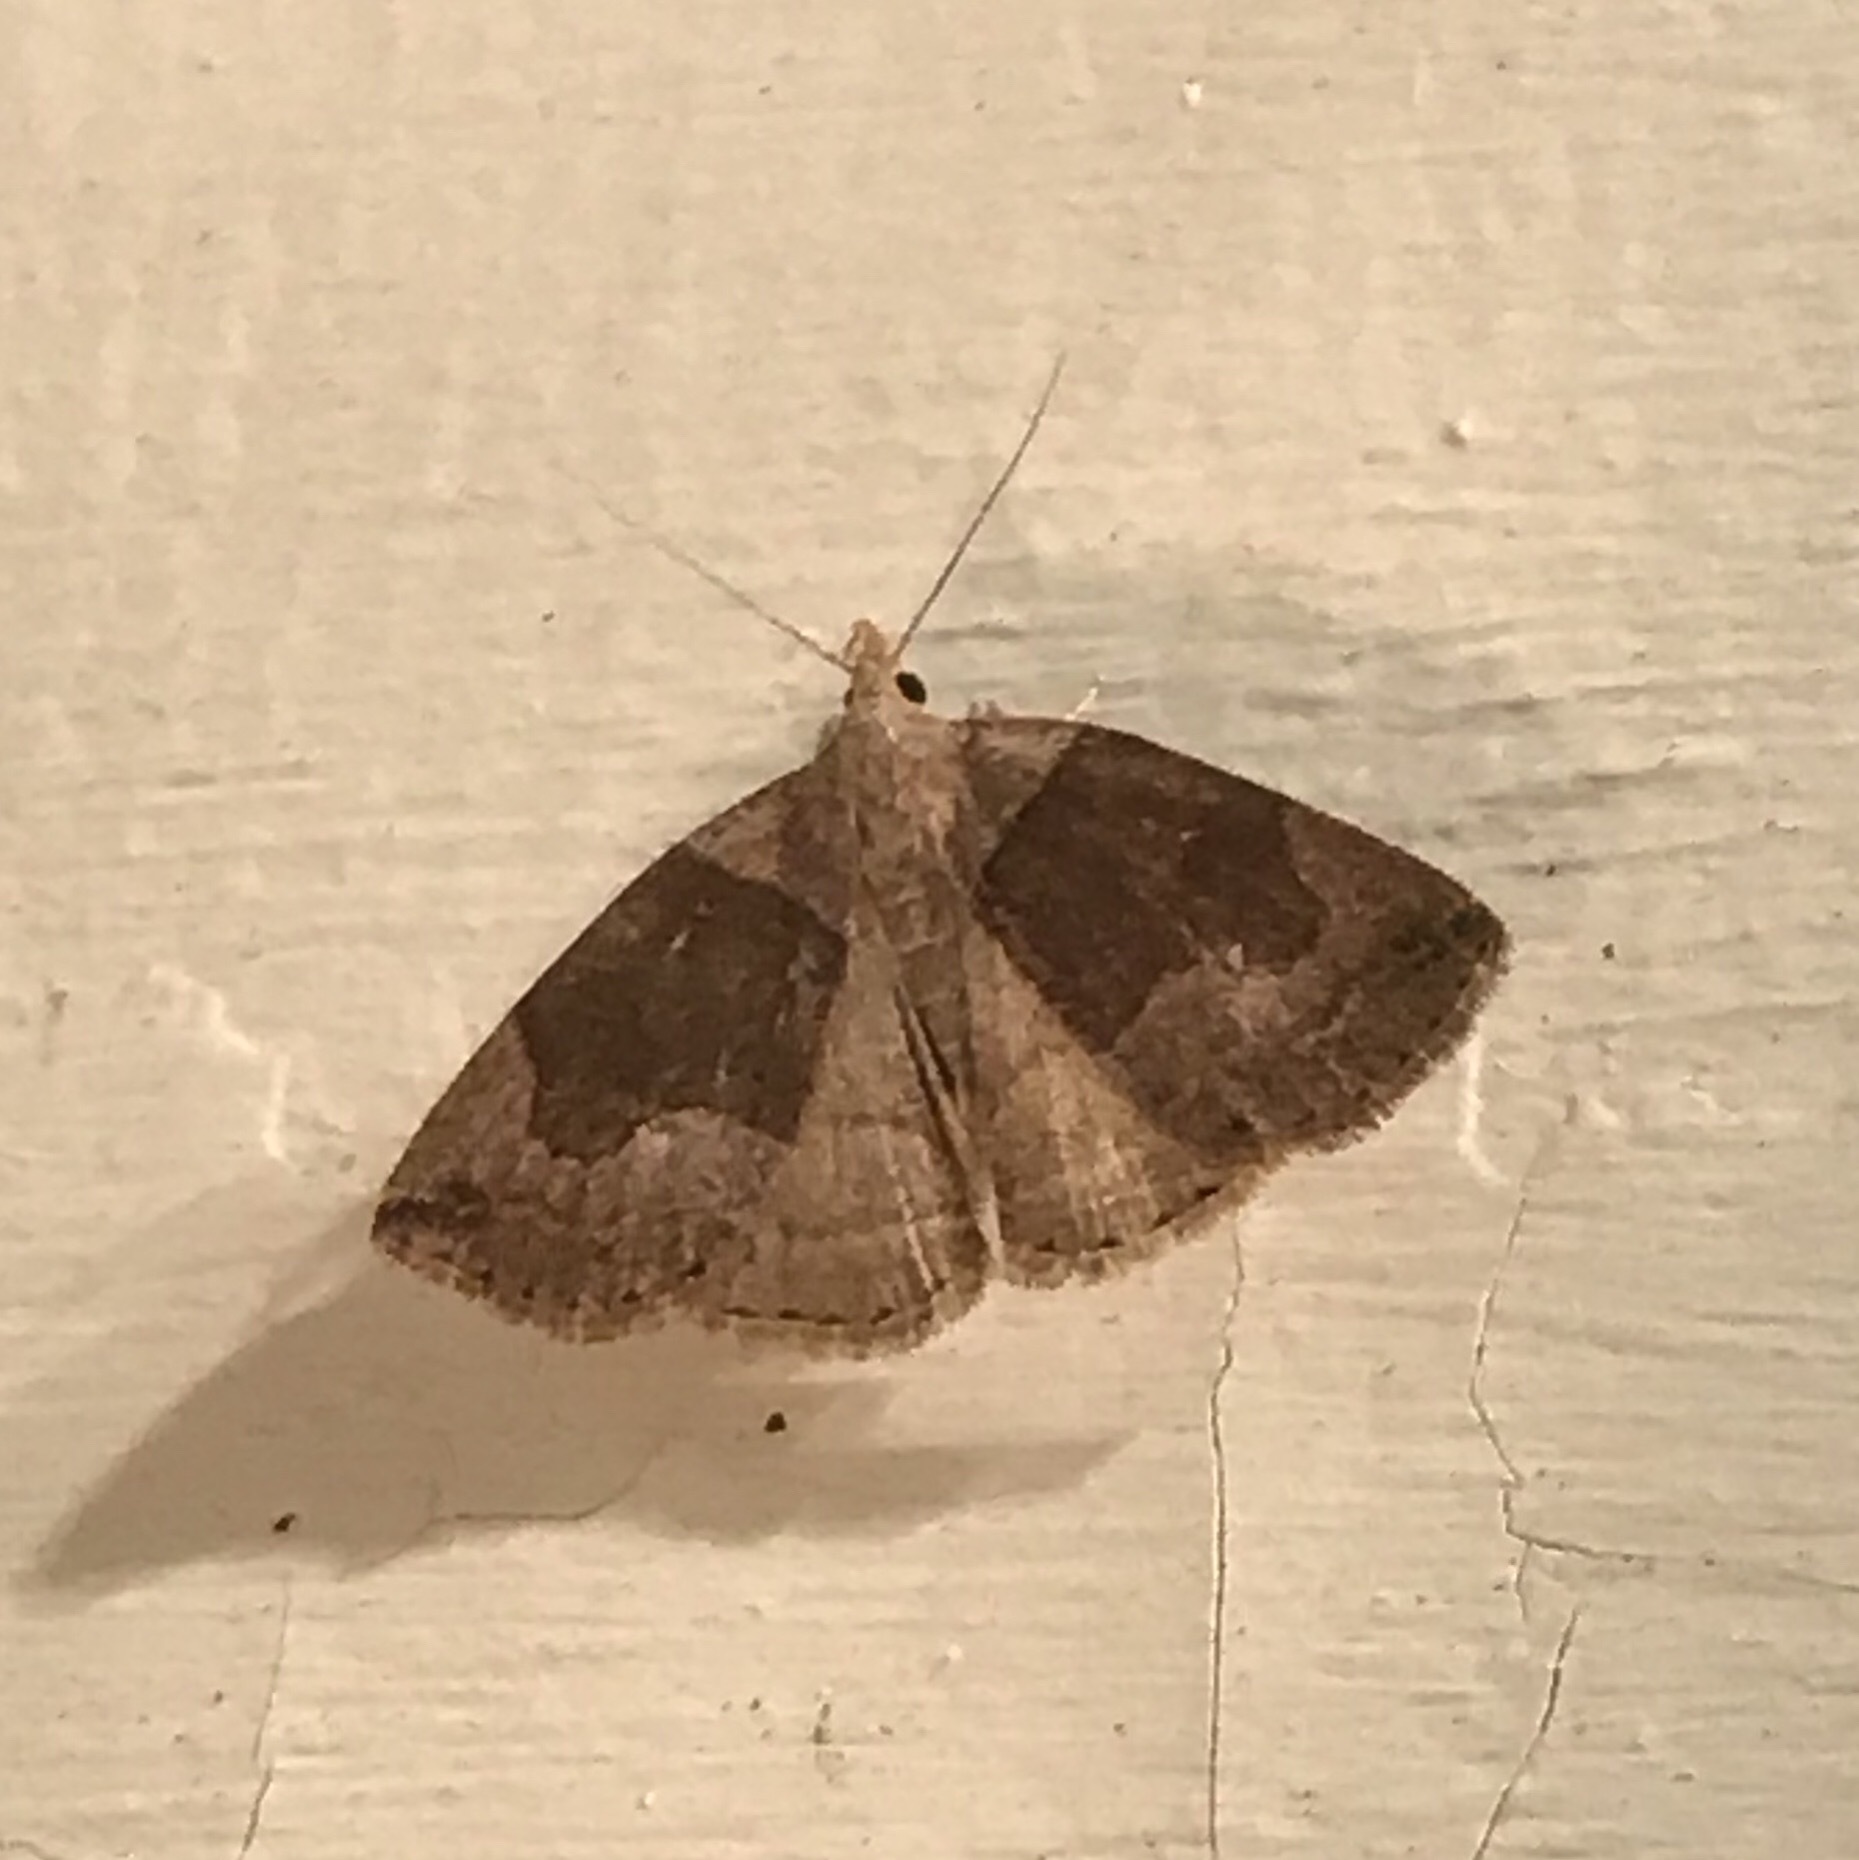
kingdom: Animalia
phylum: Arthropoda
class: Insecta
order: Lepidoptera
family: Erebidae
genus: Zanclognatha
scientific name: Zanclognatha laevigata
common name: Variable fan-foot
